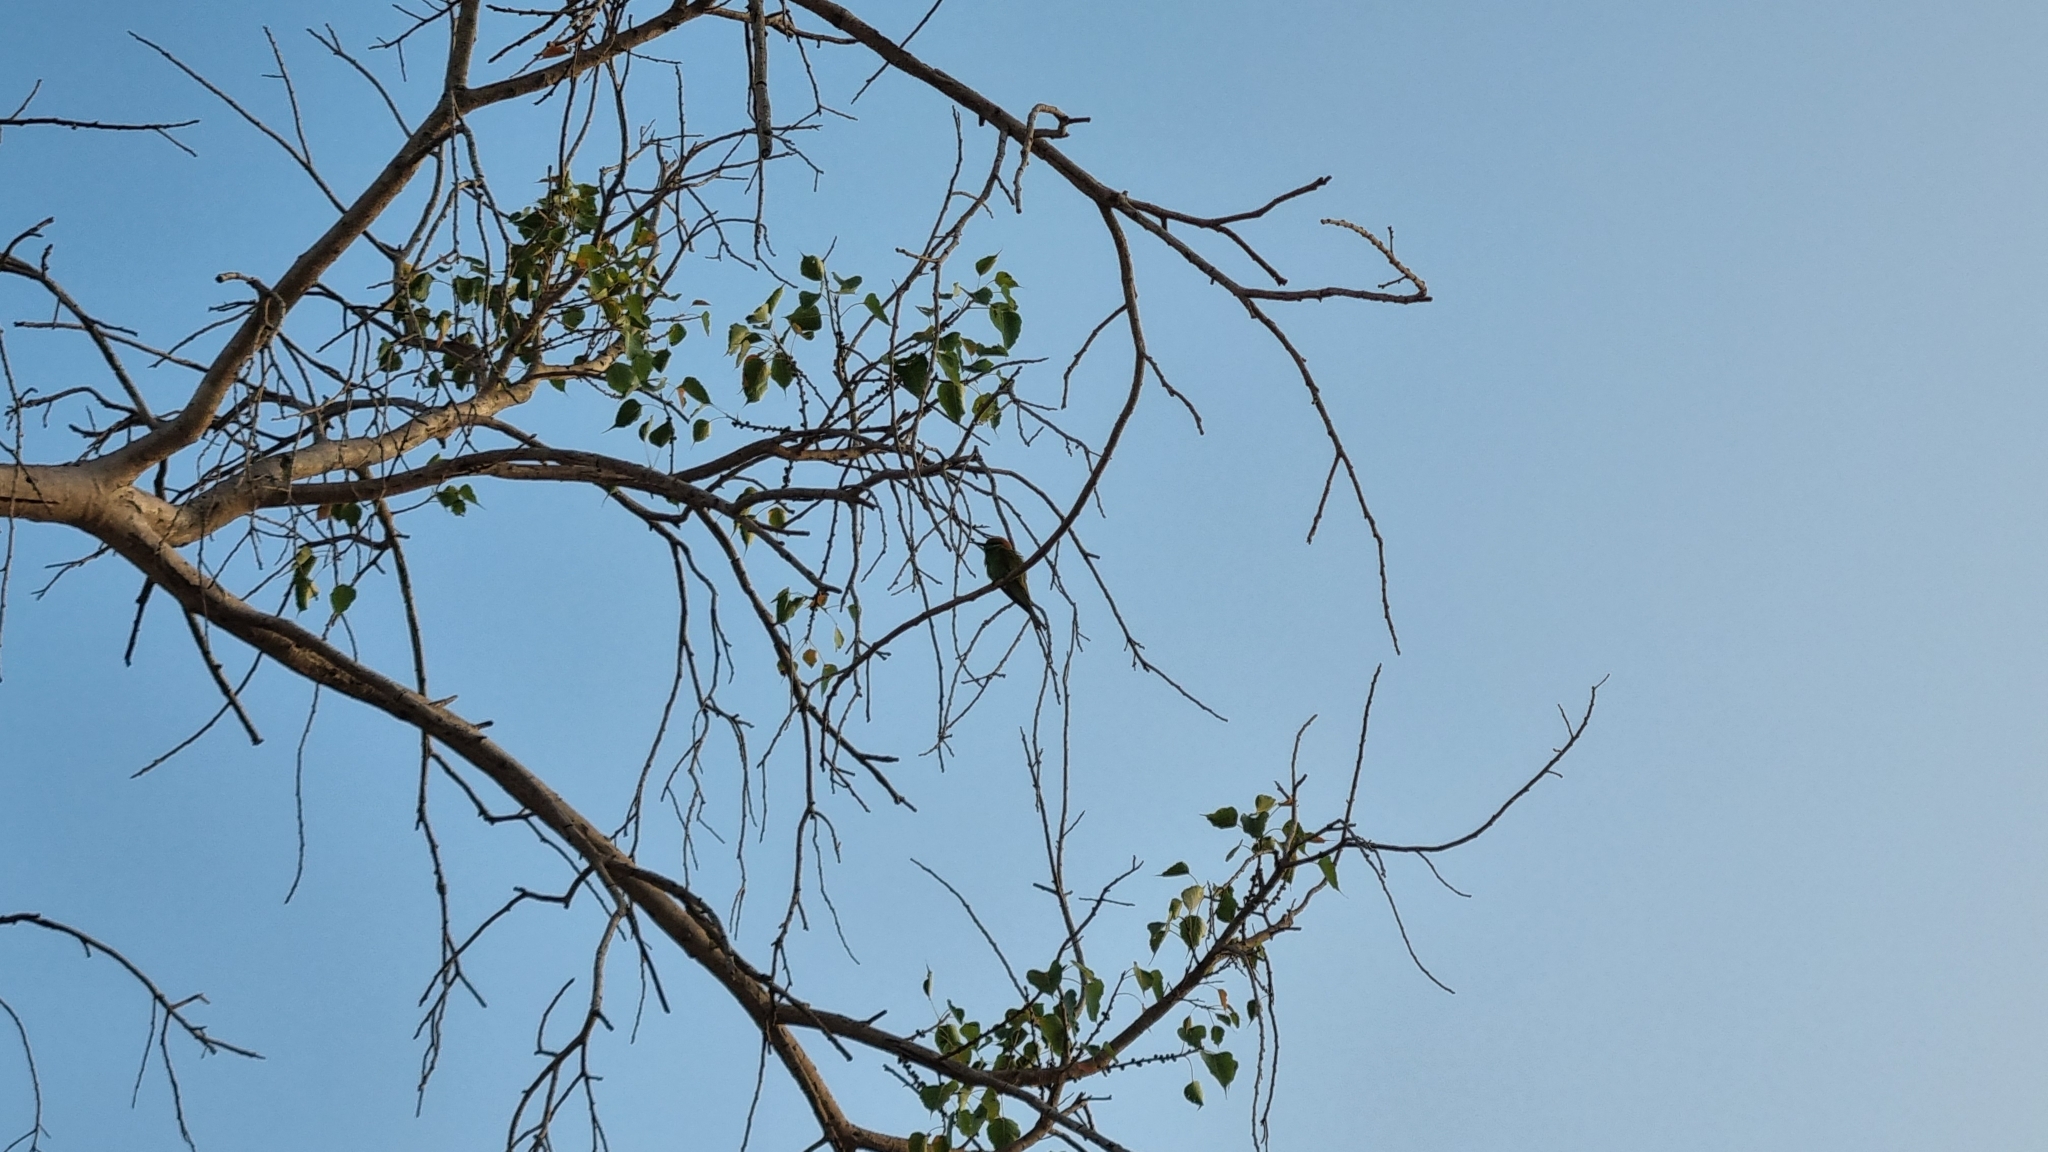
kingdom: Animalia
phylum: Chordata
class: Aves
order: Coraciiformes
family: Meropidae
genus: Merops
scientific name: Merops orientalis
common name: Green bee-eater
